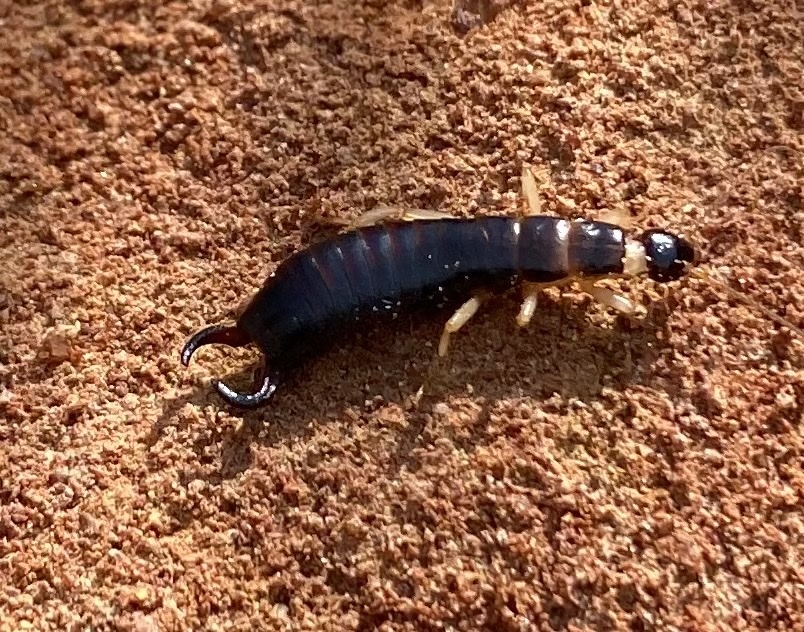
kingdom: Animalia
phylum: Arthropoda
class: Insecta
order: Dermaptera
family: Anisolabididae
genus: Anisolabis
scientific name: Anisolabis maritima
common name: Maritime earwig
